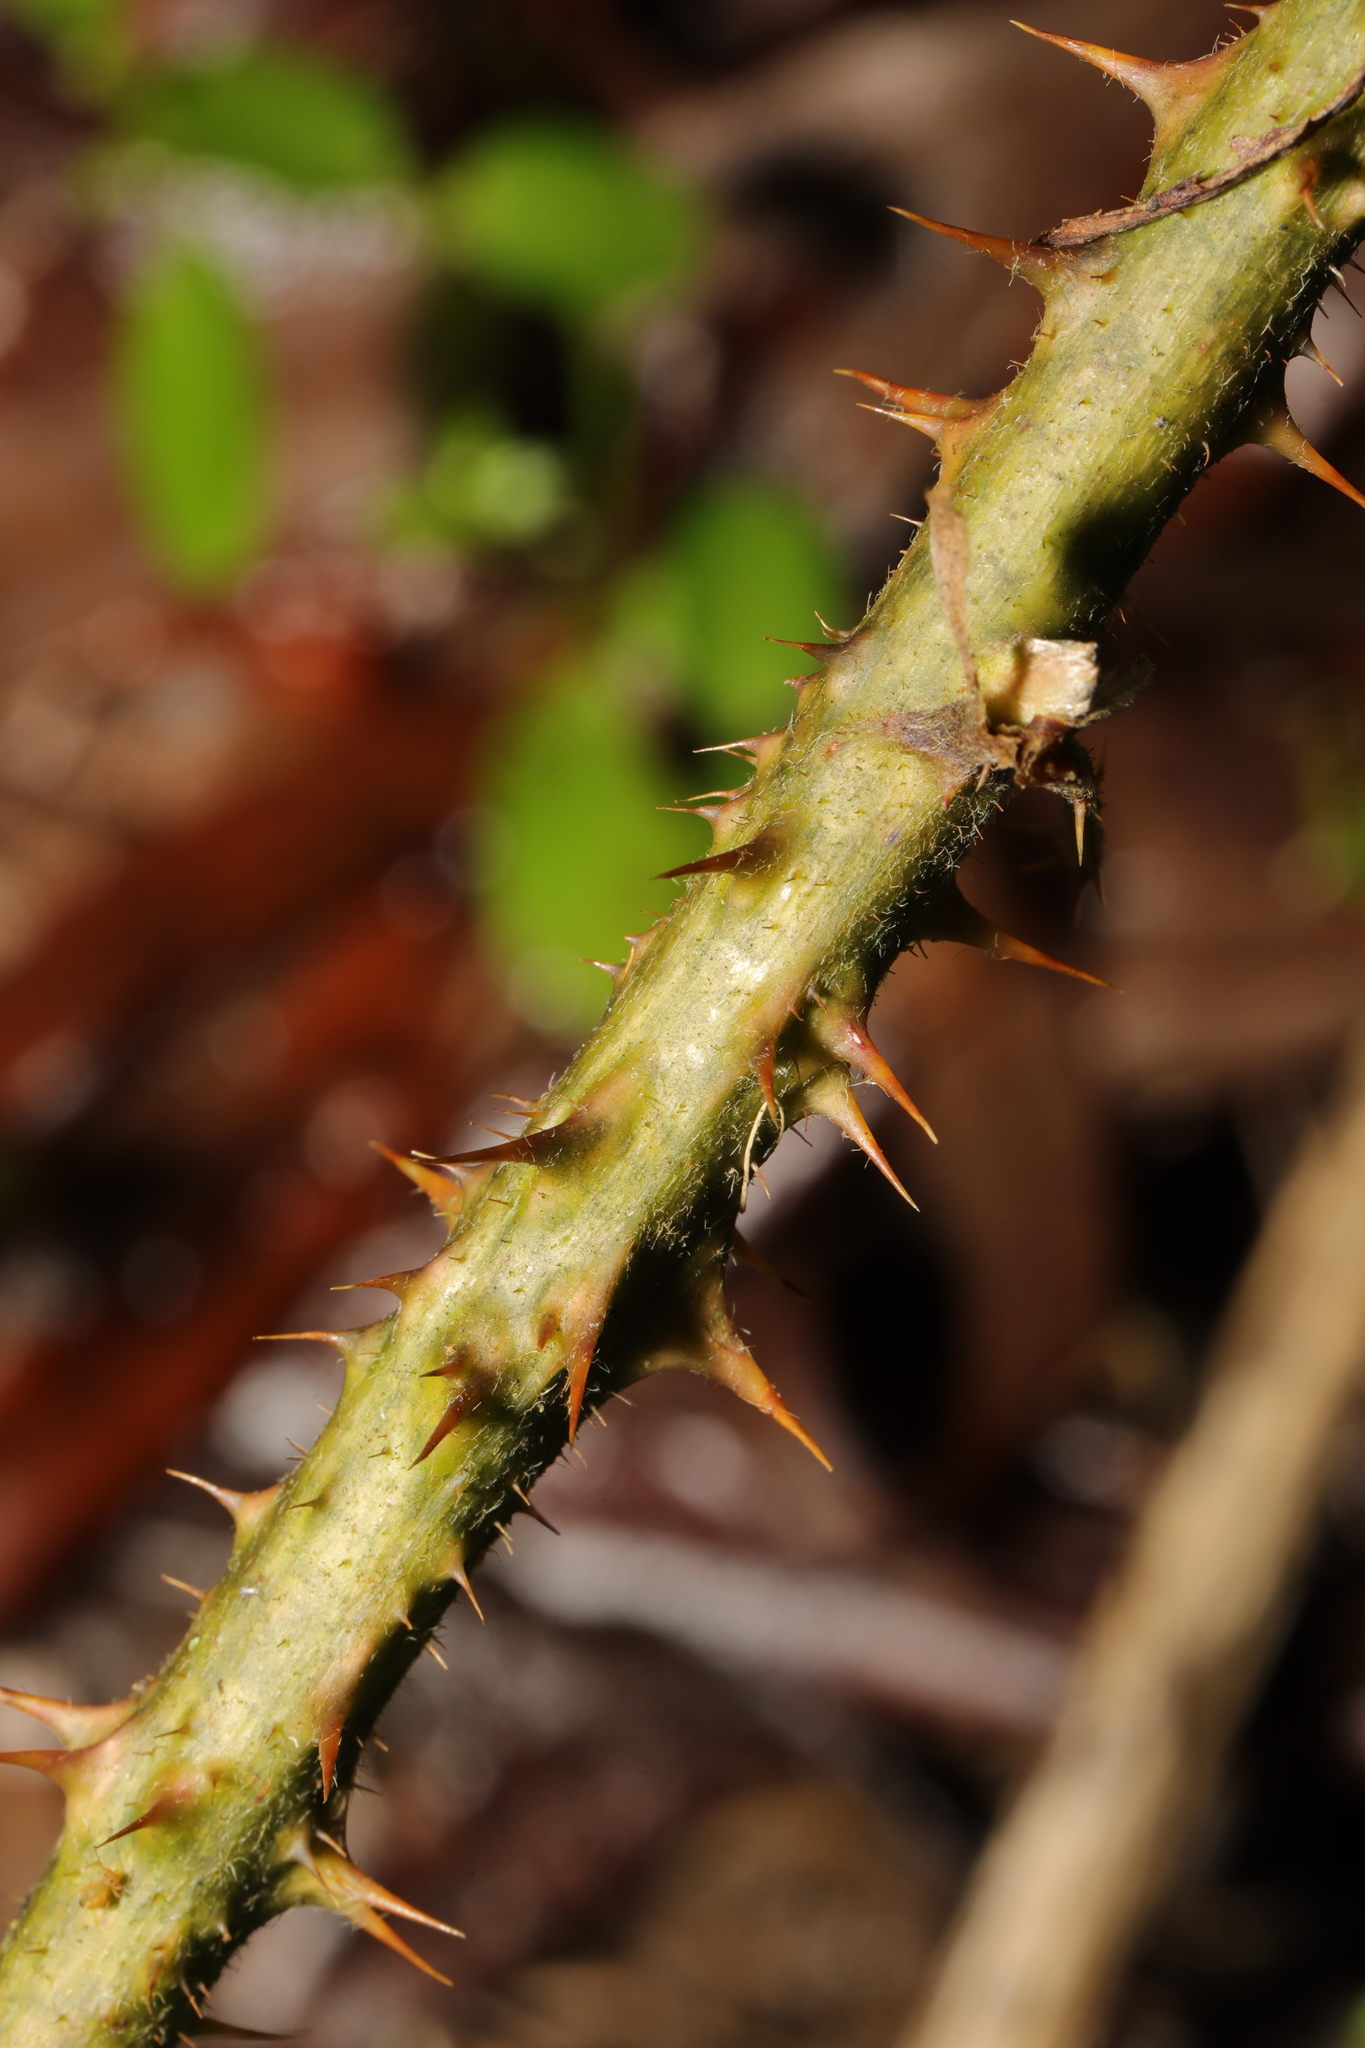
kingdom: Plantae
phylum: Tracheophyta
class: Magnoliopsida
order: Rosales
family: Rosaceae
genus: Rubus
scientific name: Rubus horrefactus
